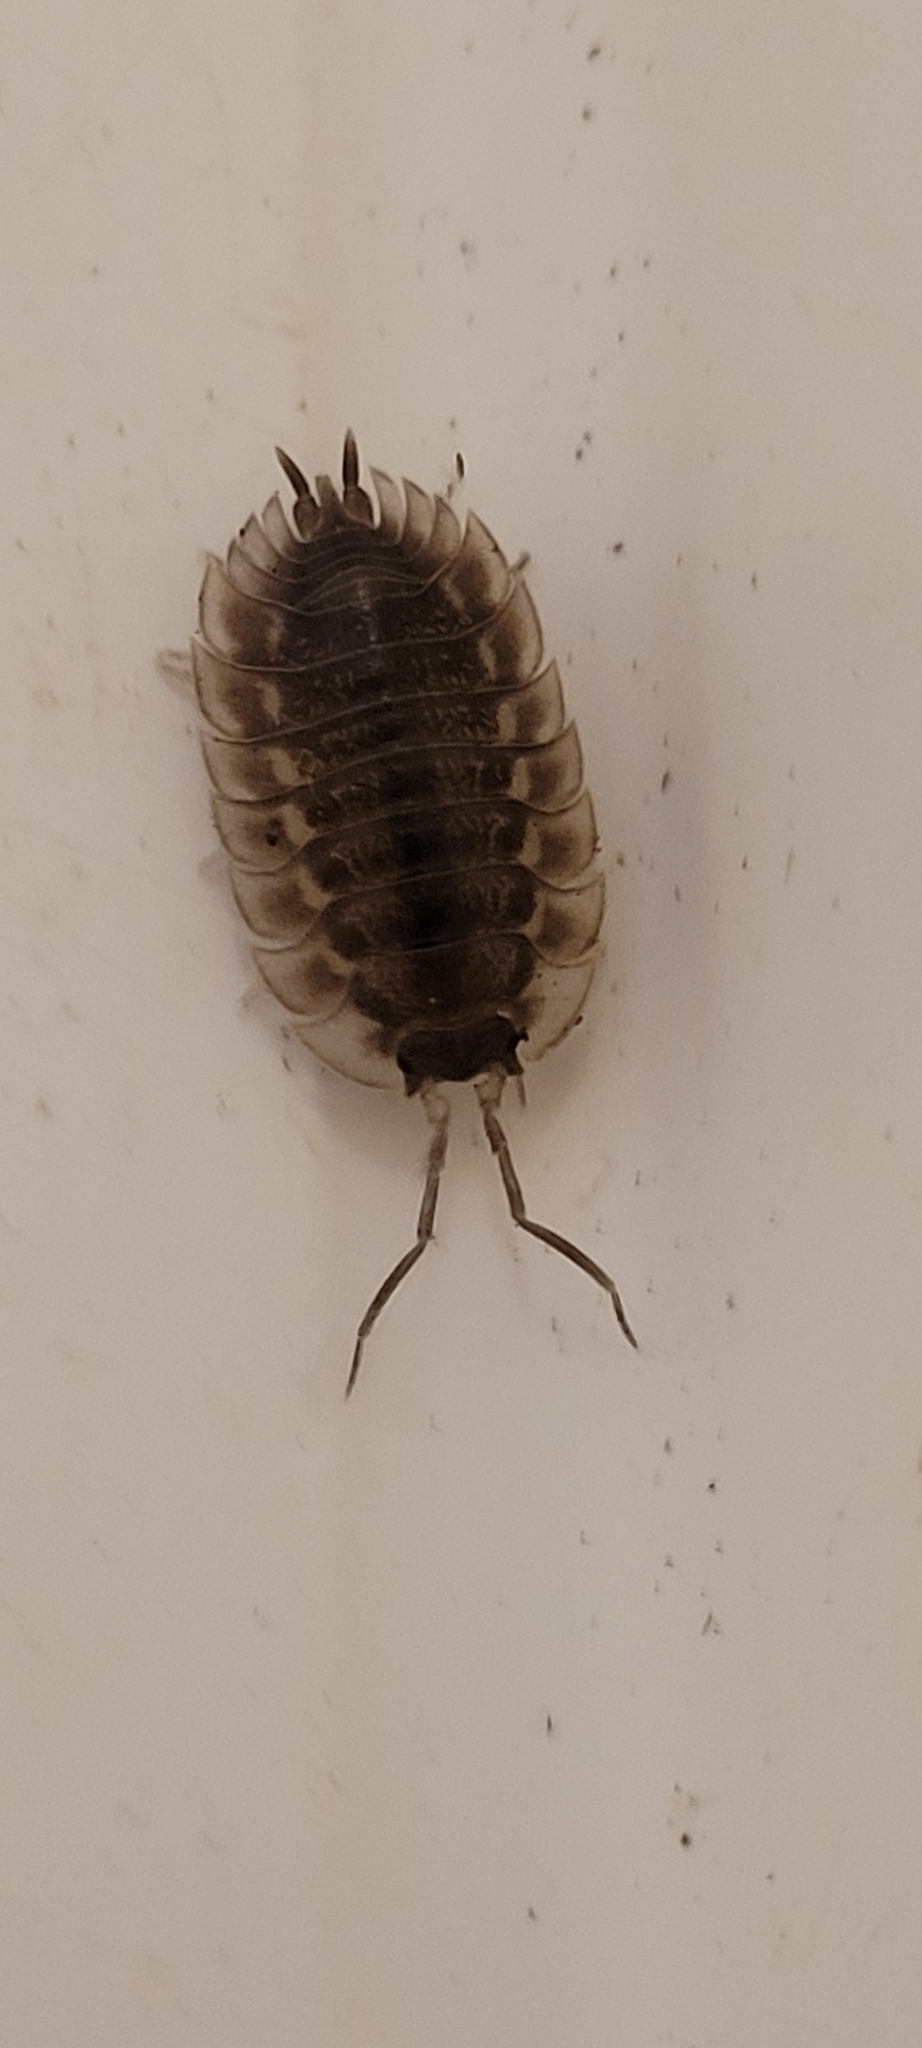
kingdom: Animalia
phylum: Arthropoda
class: Malacostraca
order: Isopoda
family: Oniscidae
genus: Oniscus
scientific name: Oniscus asellus
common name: Common shiny woodlouse
